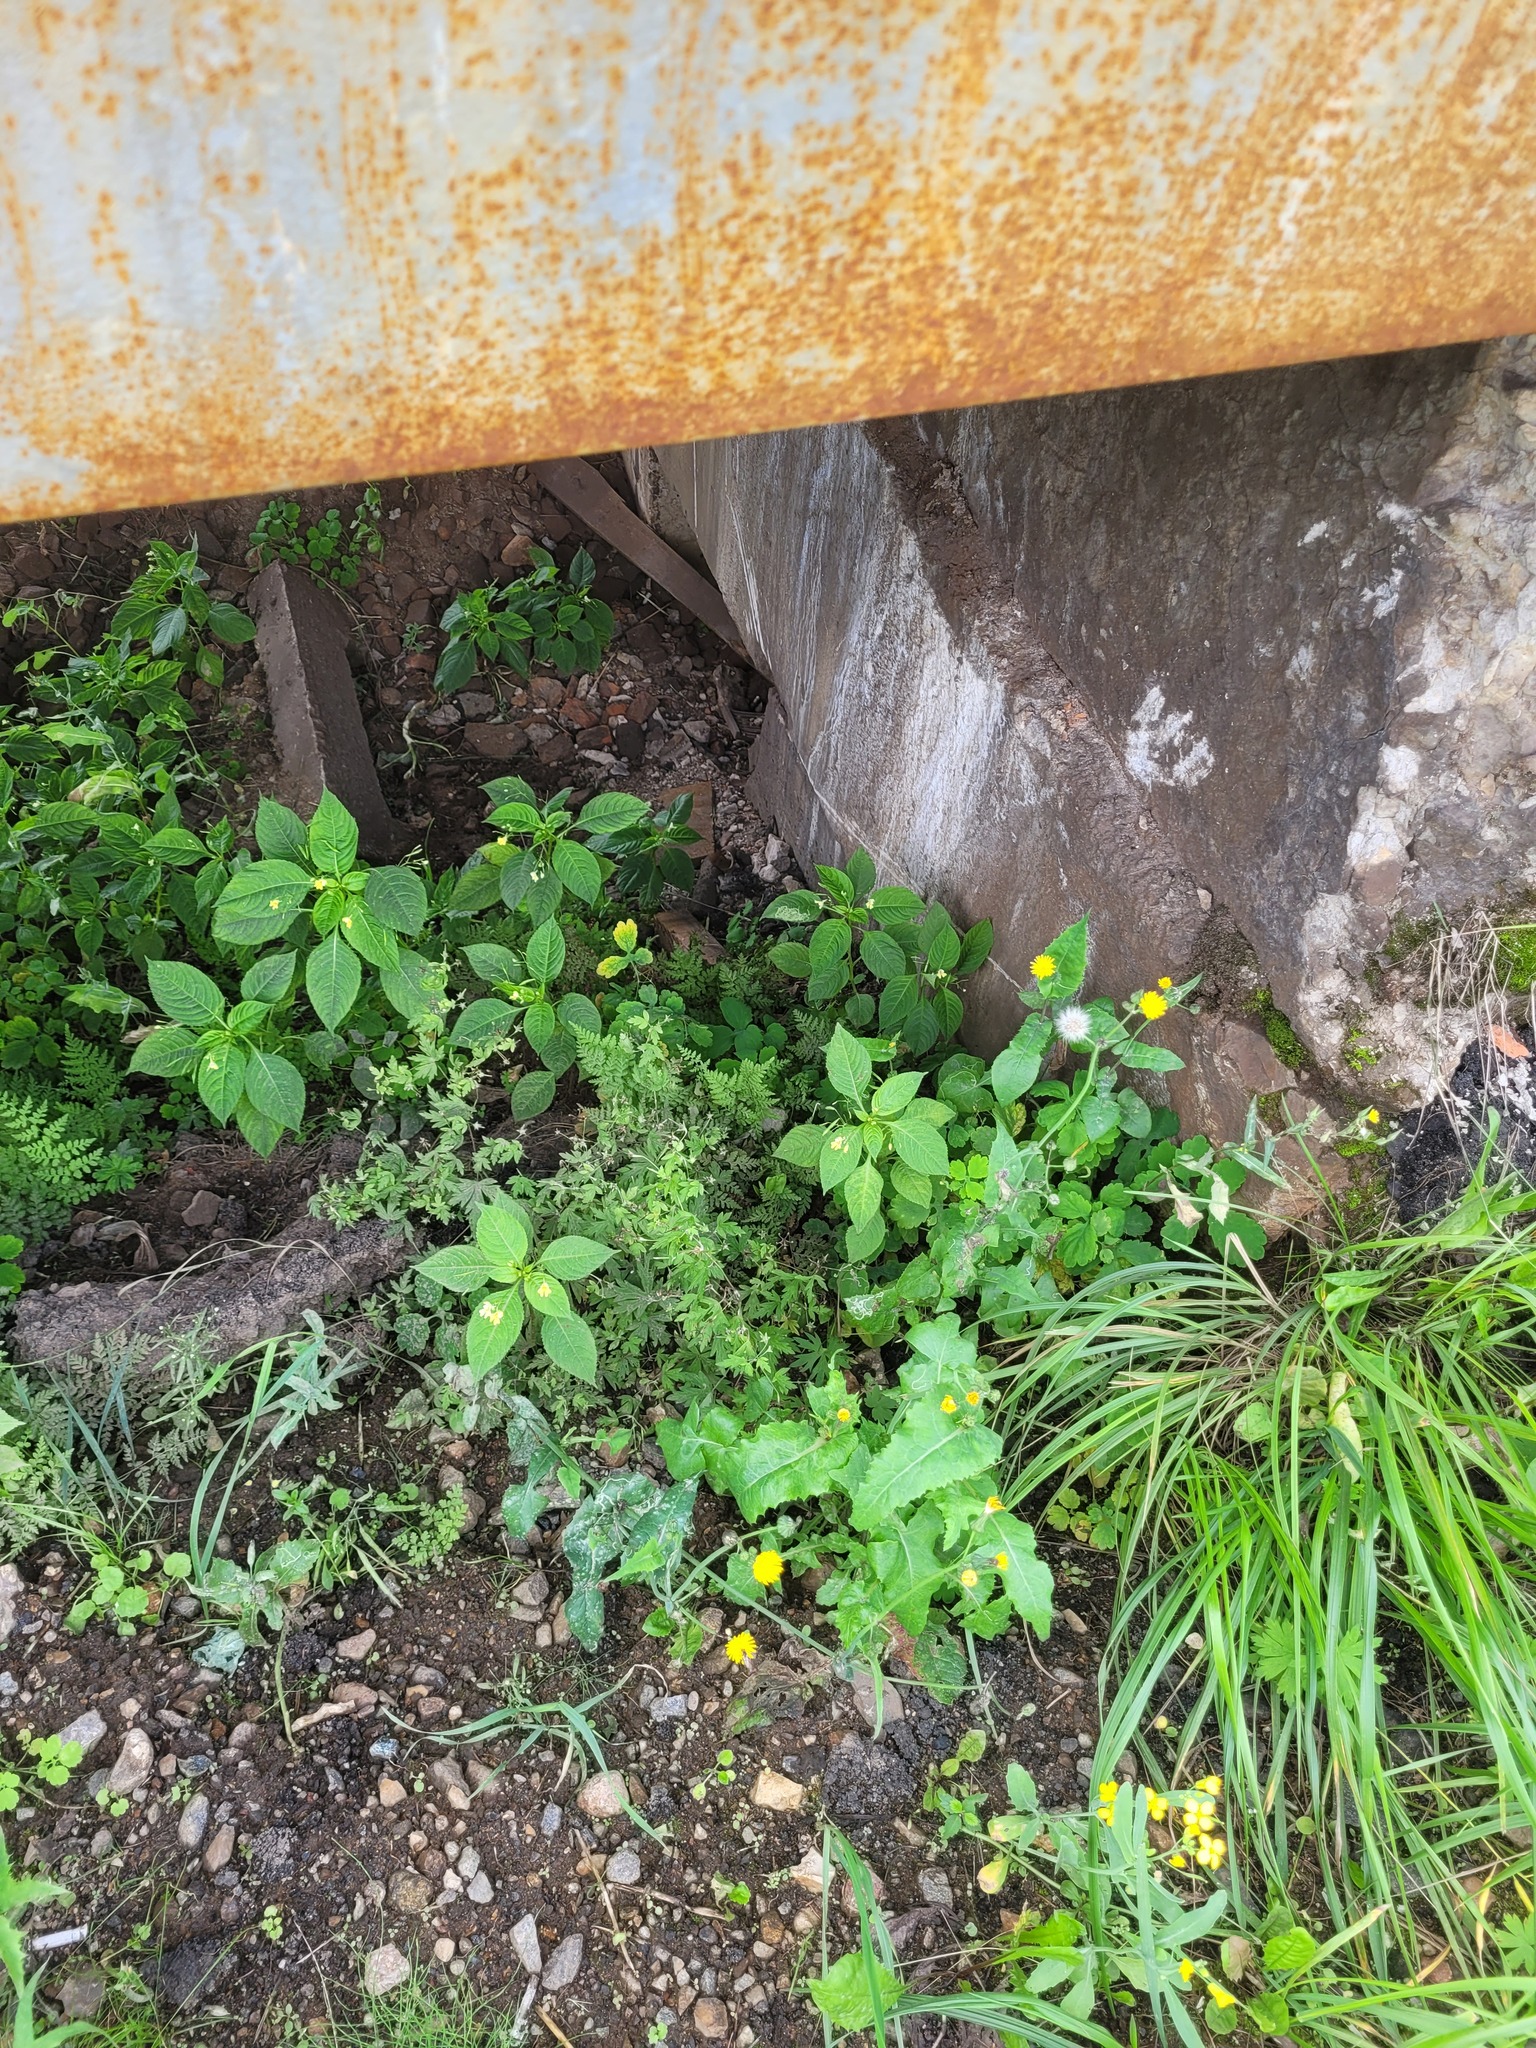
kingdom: Plantae
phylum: Tracheophyta
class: Magnoliopsida
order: Ericales
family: Balsaminaceae
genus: Impatiens
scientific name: Impatiens parviflora
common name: Small balsam
